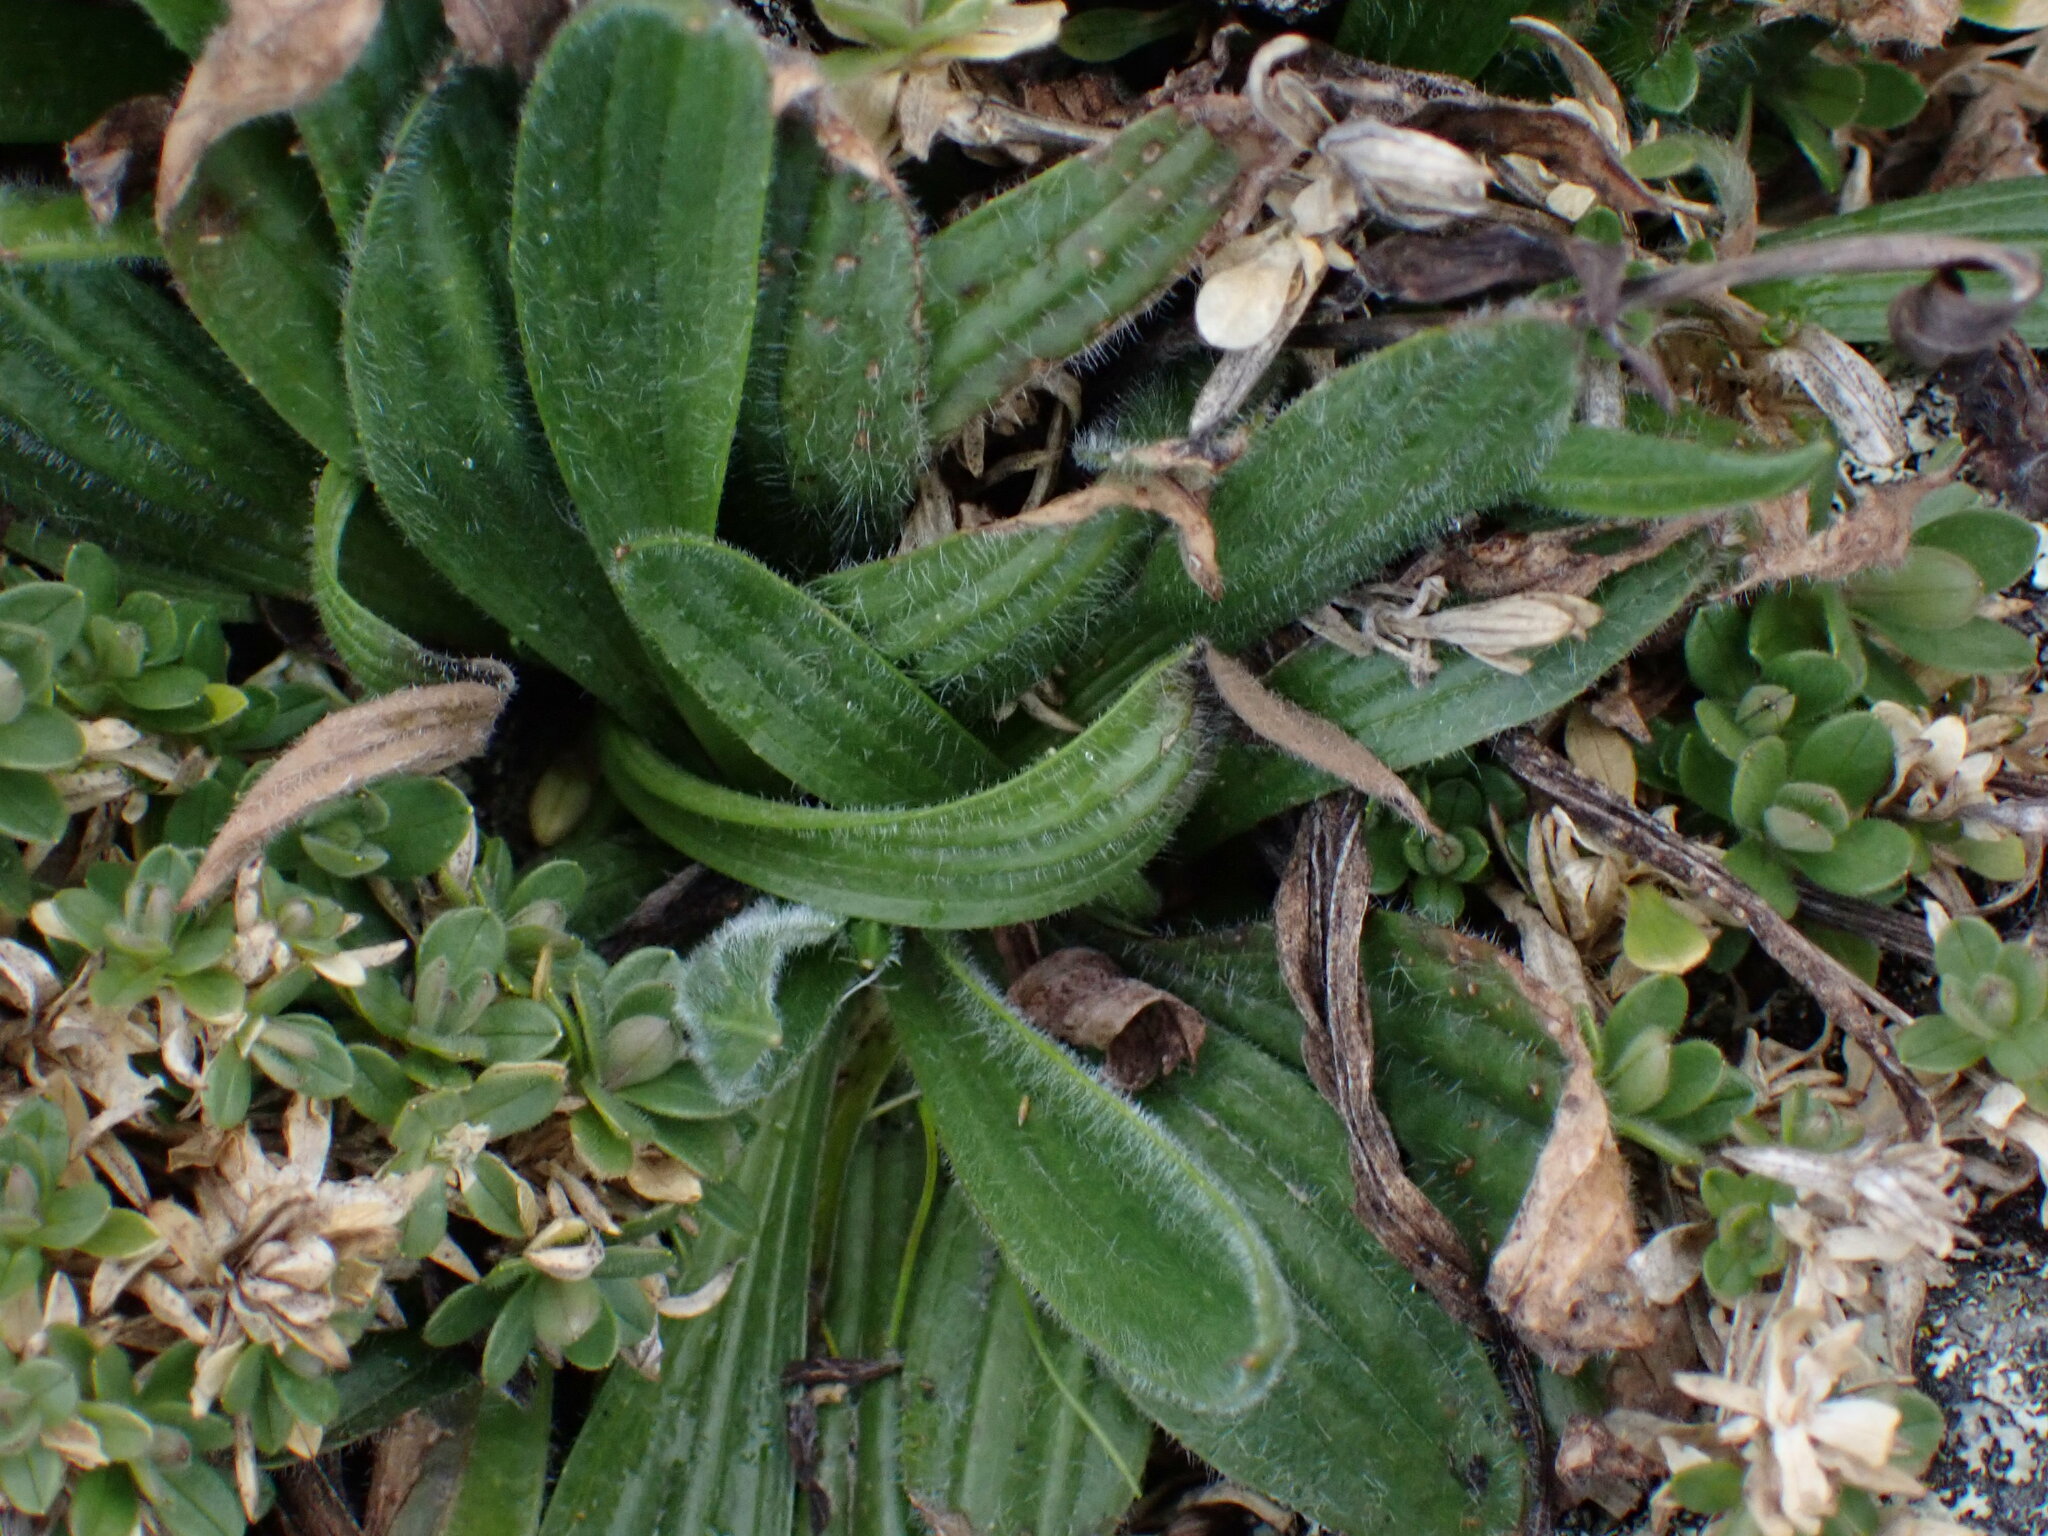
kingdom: Plantae
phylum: Tracheophyta
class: Magnoliopsida
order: Lamiales
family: Plantaginaceae
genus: Plantago
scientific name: Plantago lanceolata
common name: Ribwort plantain
